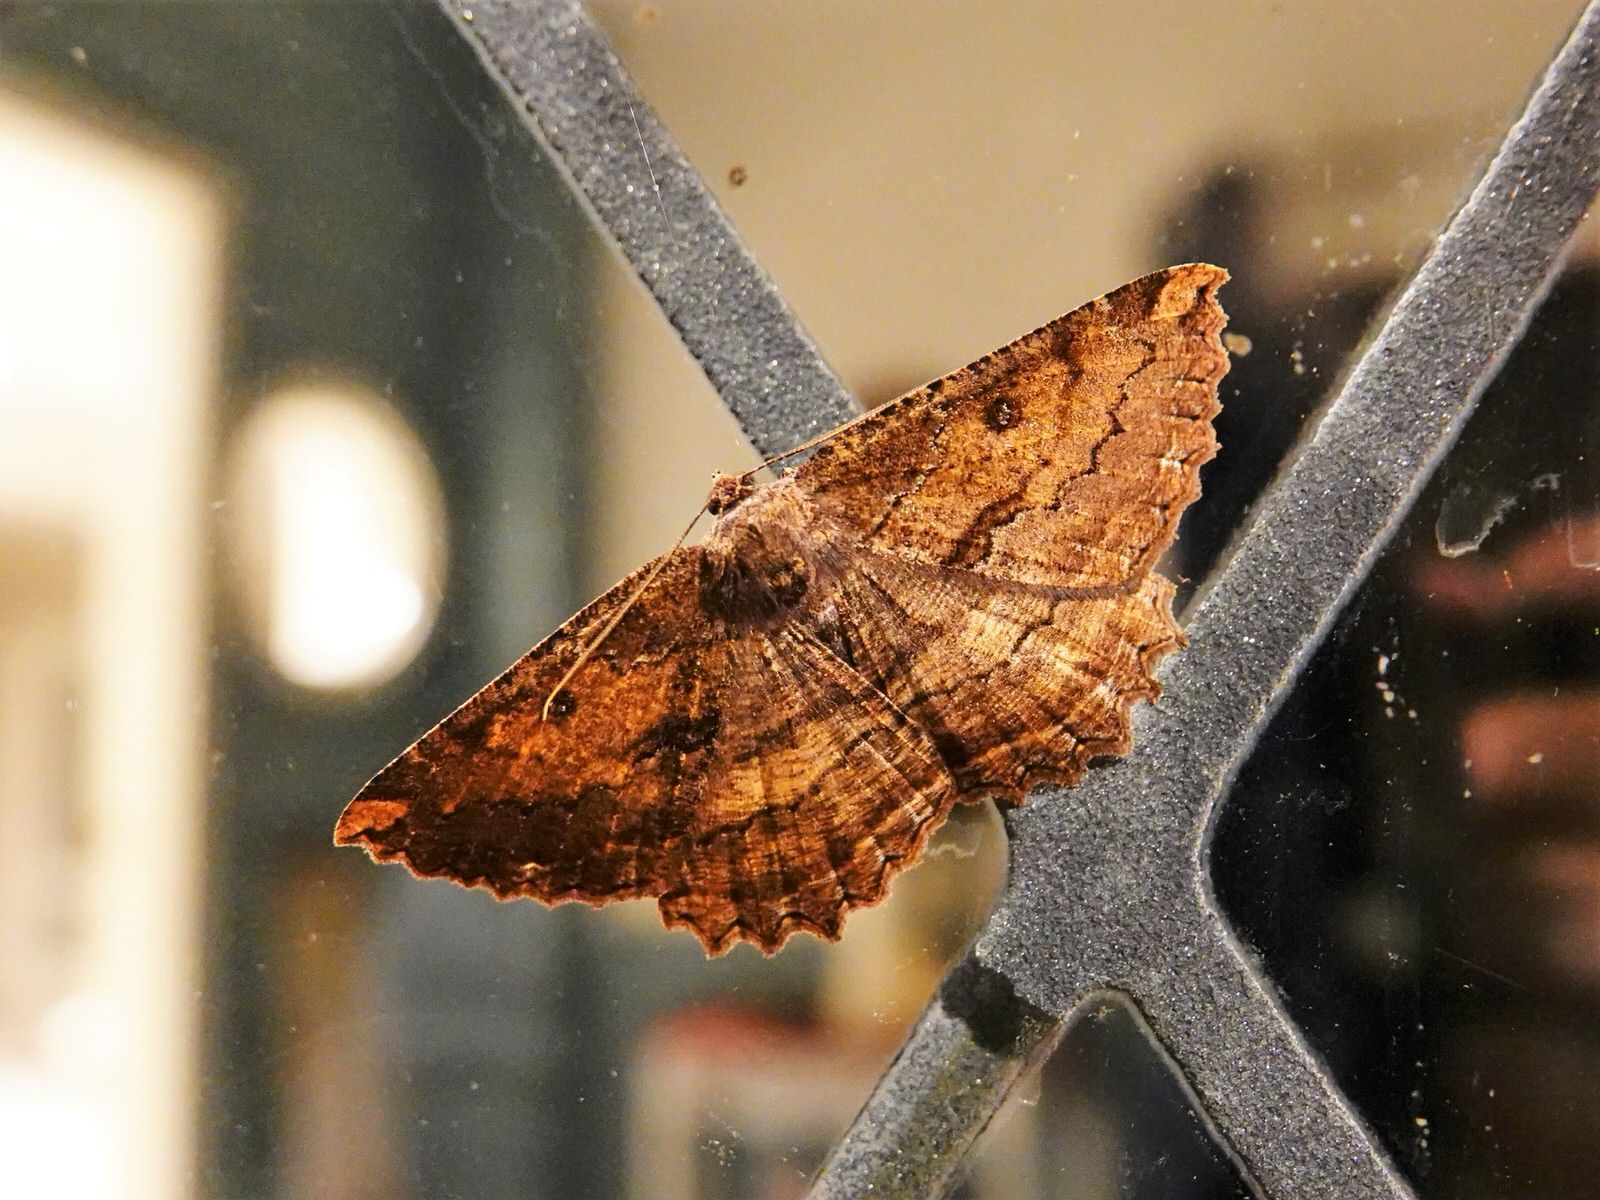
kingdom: Animalia
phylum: Arthropoda
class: Insecta
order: Lepidoptera
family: Geometridae
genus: Gellonia
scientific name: Gellonia dejectaria
